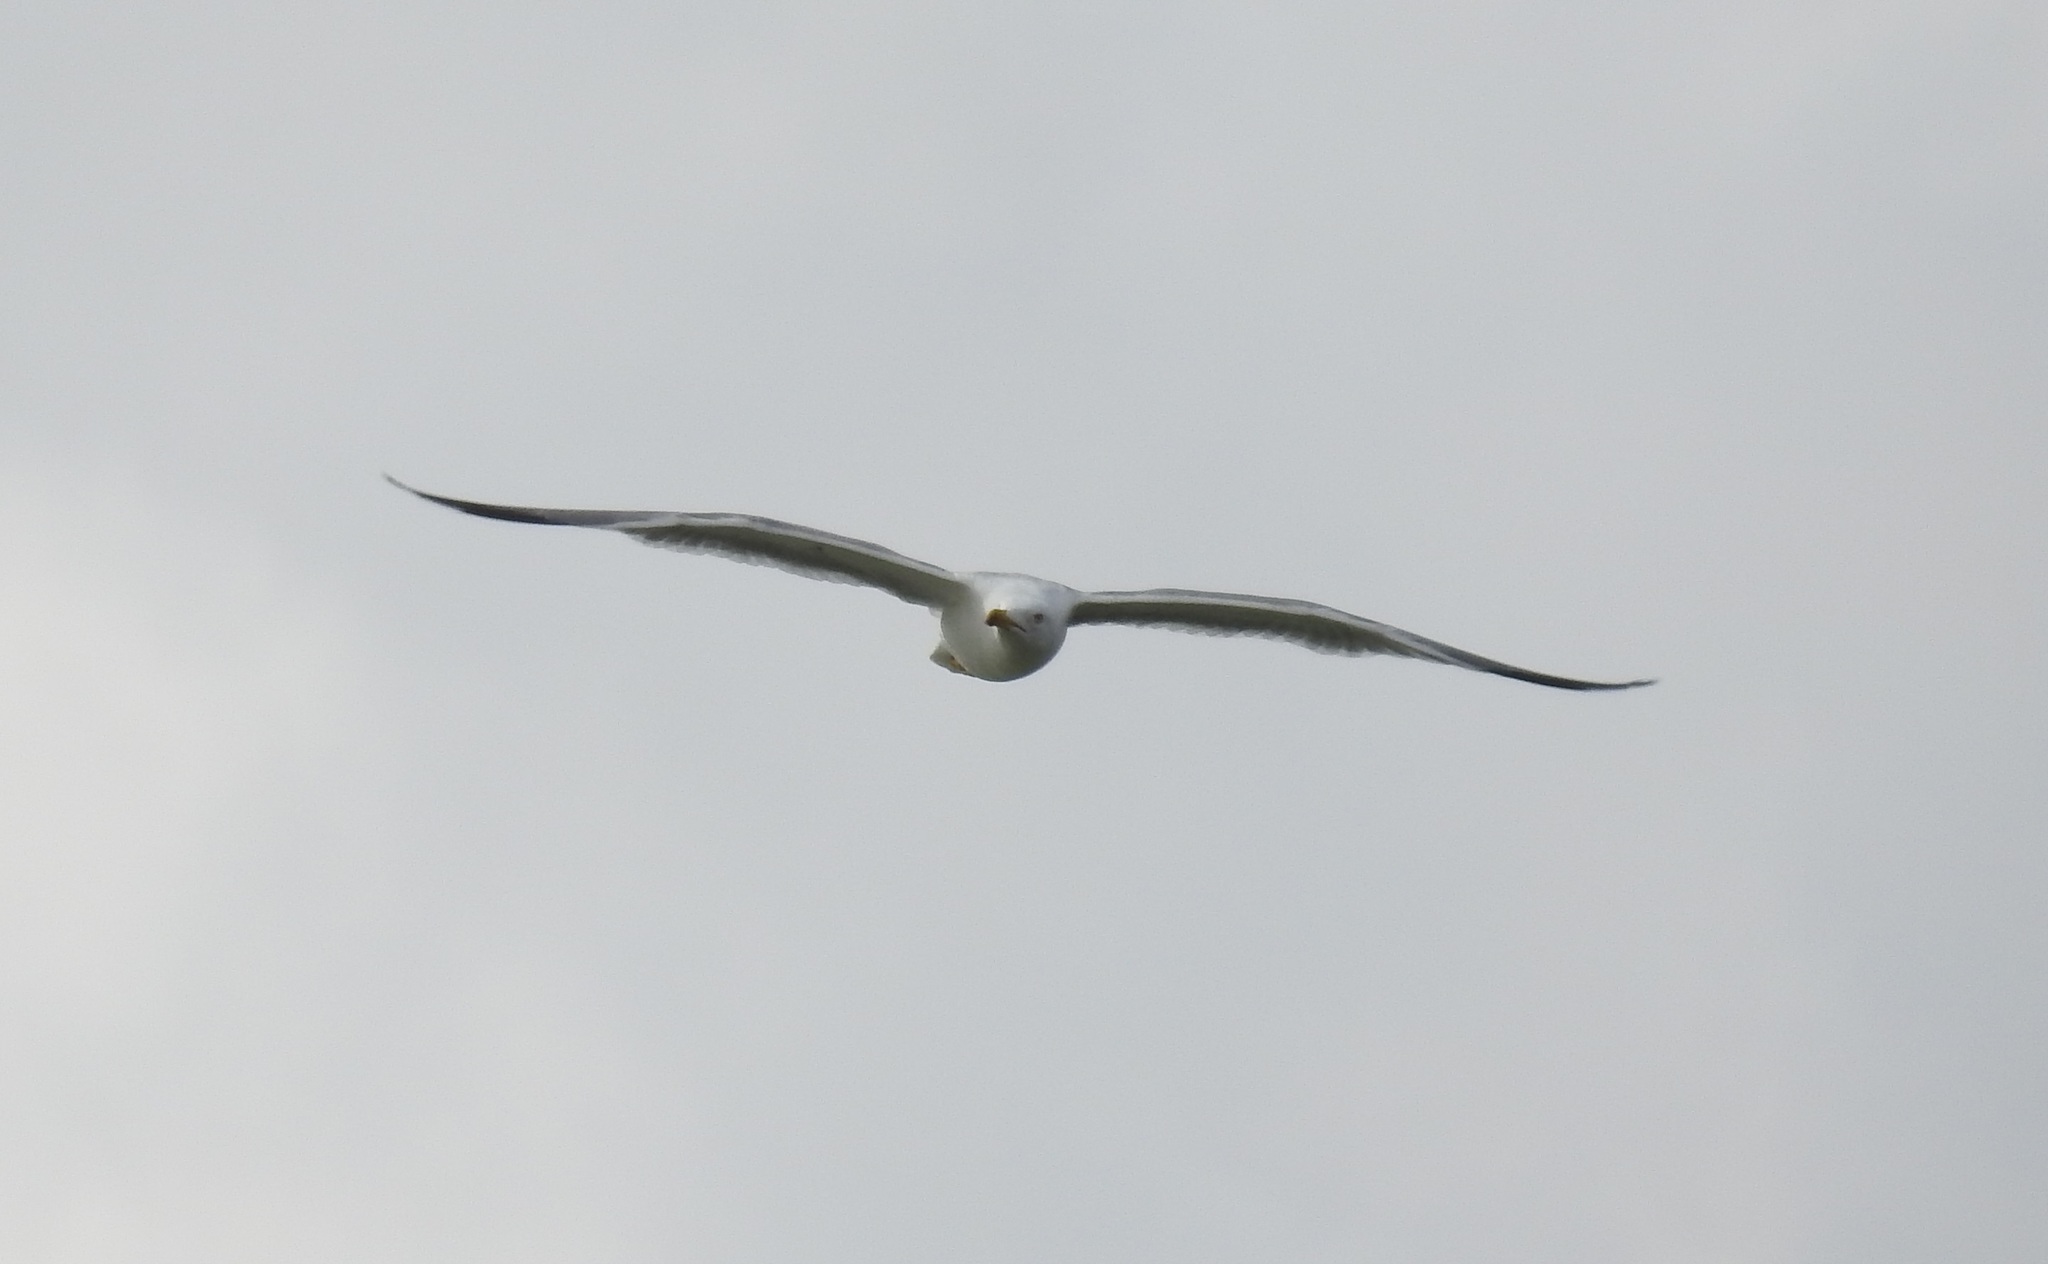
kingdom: Animalia
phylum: Chordata
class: Aves
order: Charadriiformes
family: Laridae
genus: Larus
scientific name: Larus michahellis
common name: Yellow-legged gull
